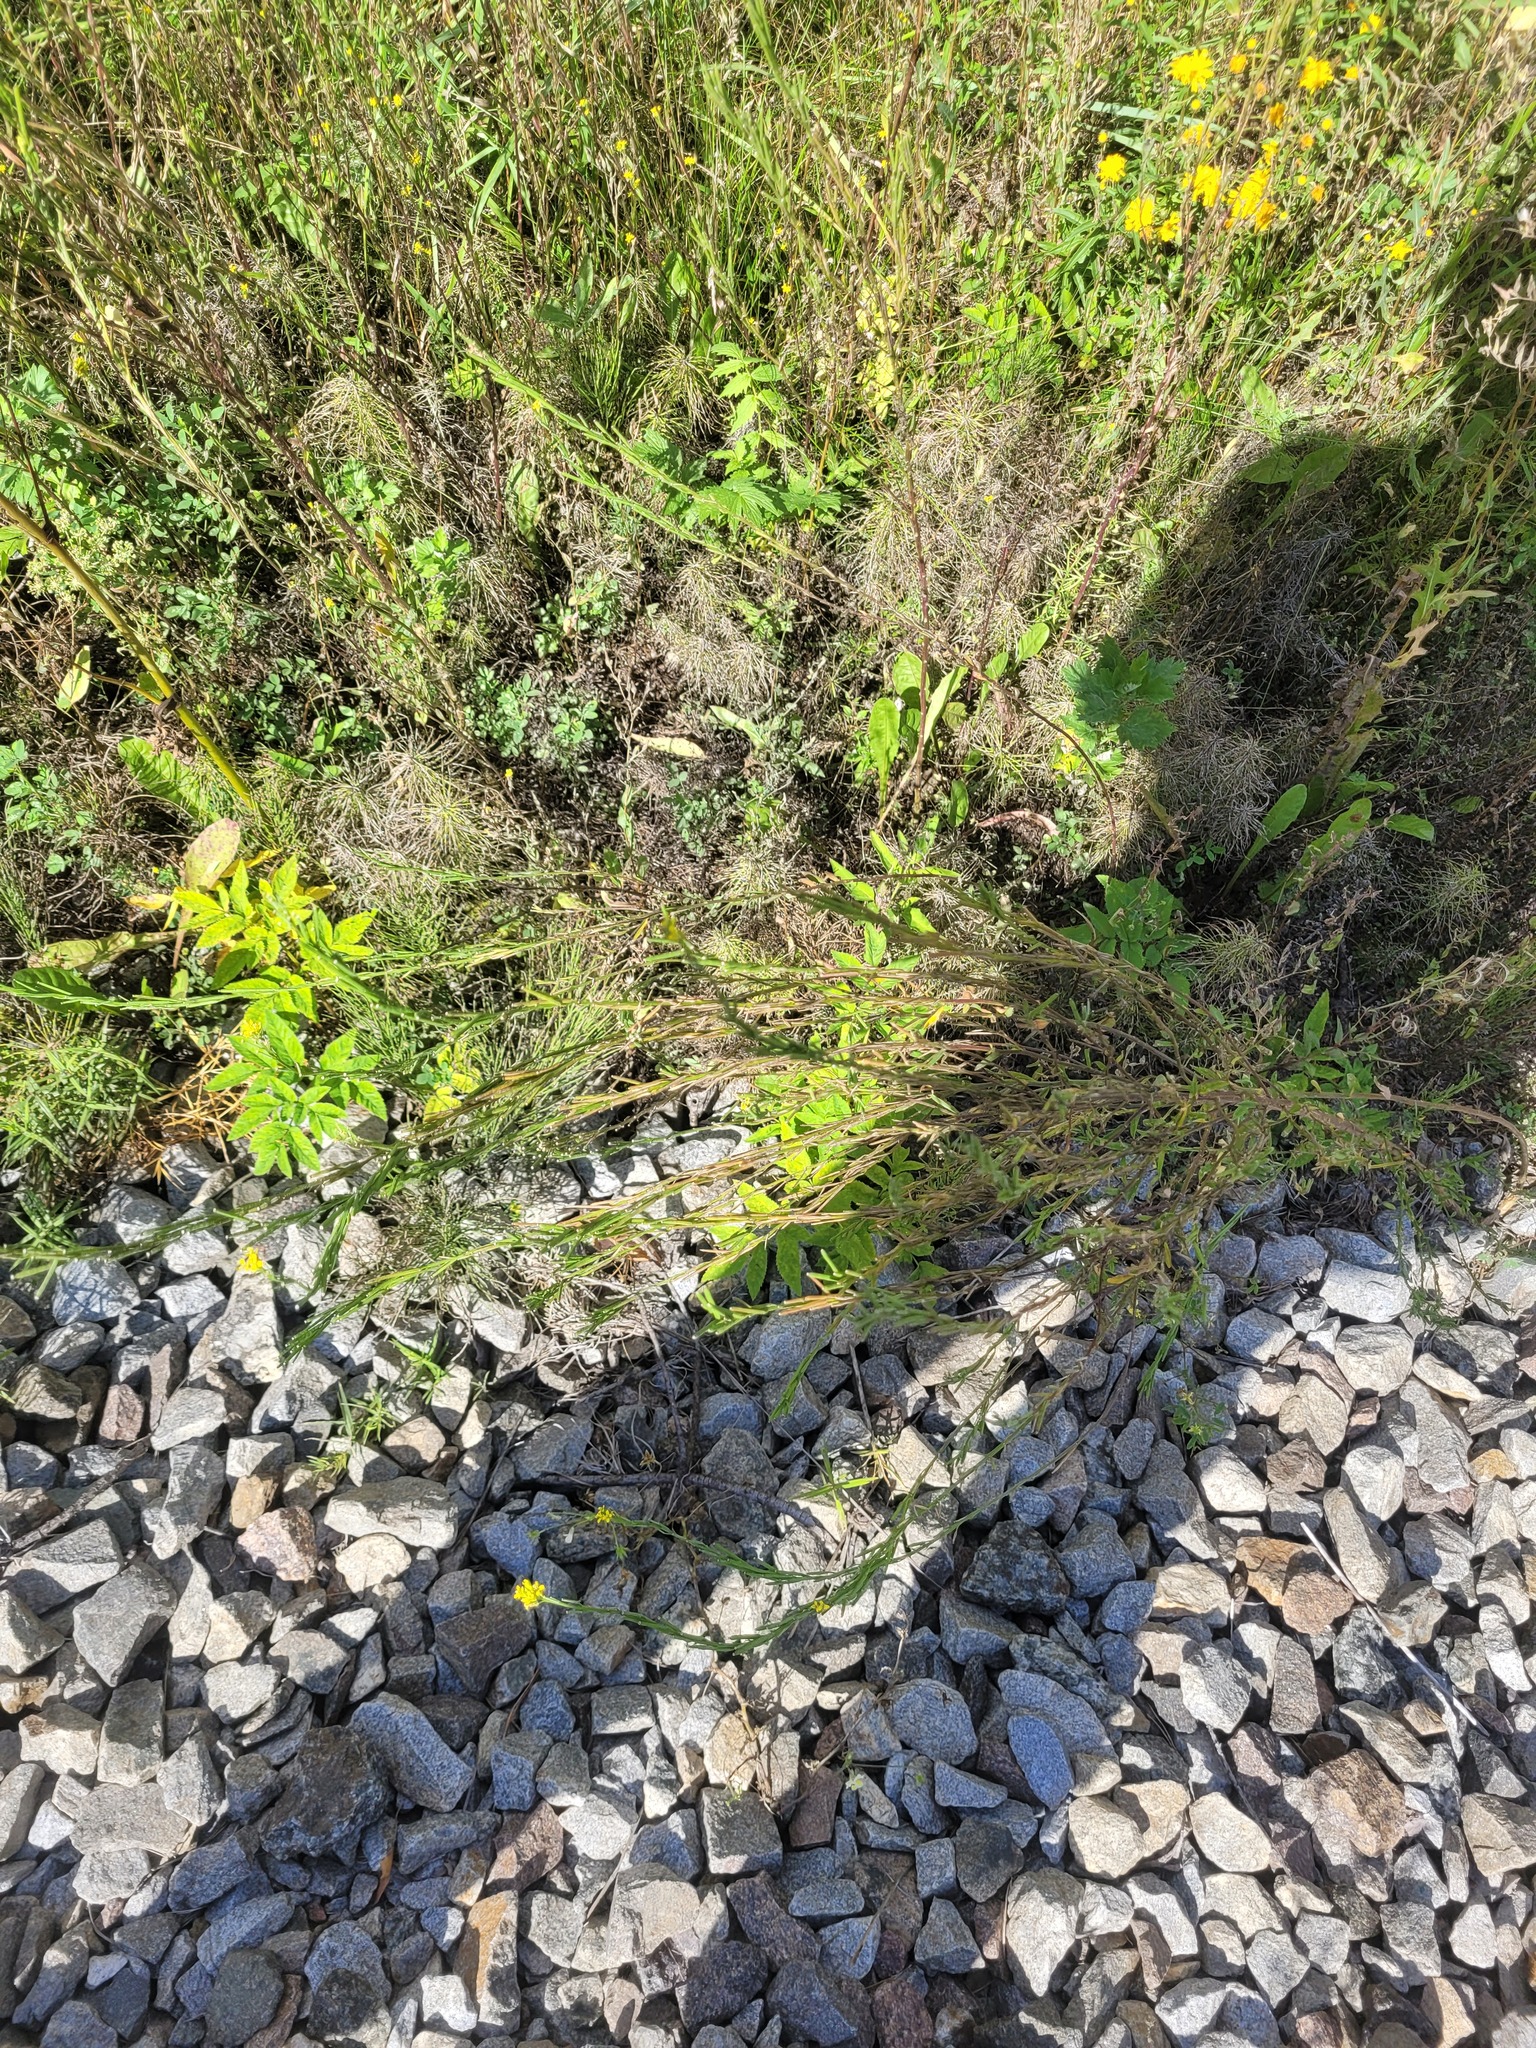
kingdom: Plantae
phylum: Tracheophyta
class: Magnoliopsida
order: Brassicales
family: Brassicaceae
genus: Erysimum
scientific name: Erysimum hieraciifolium
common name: European wallflower
